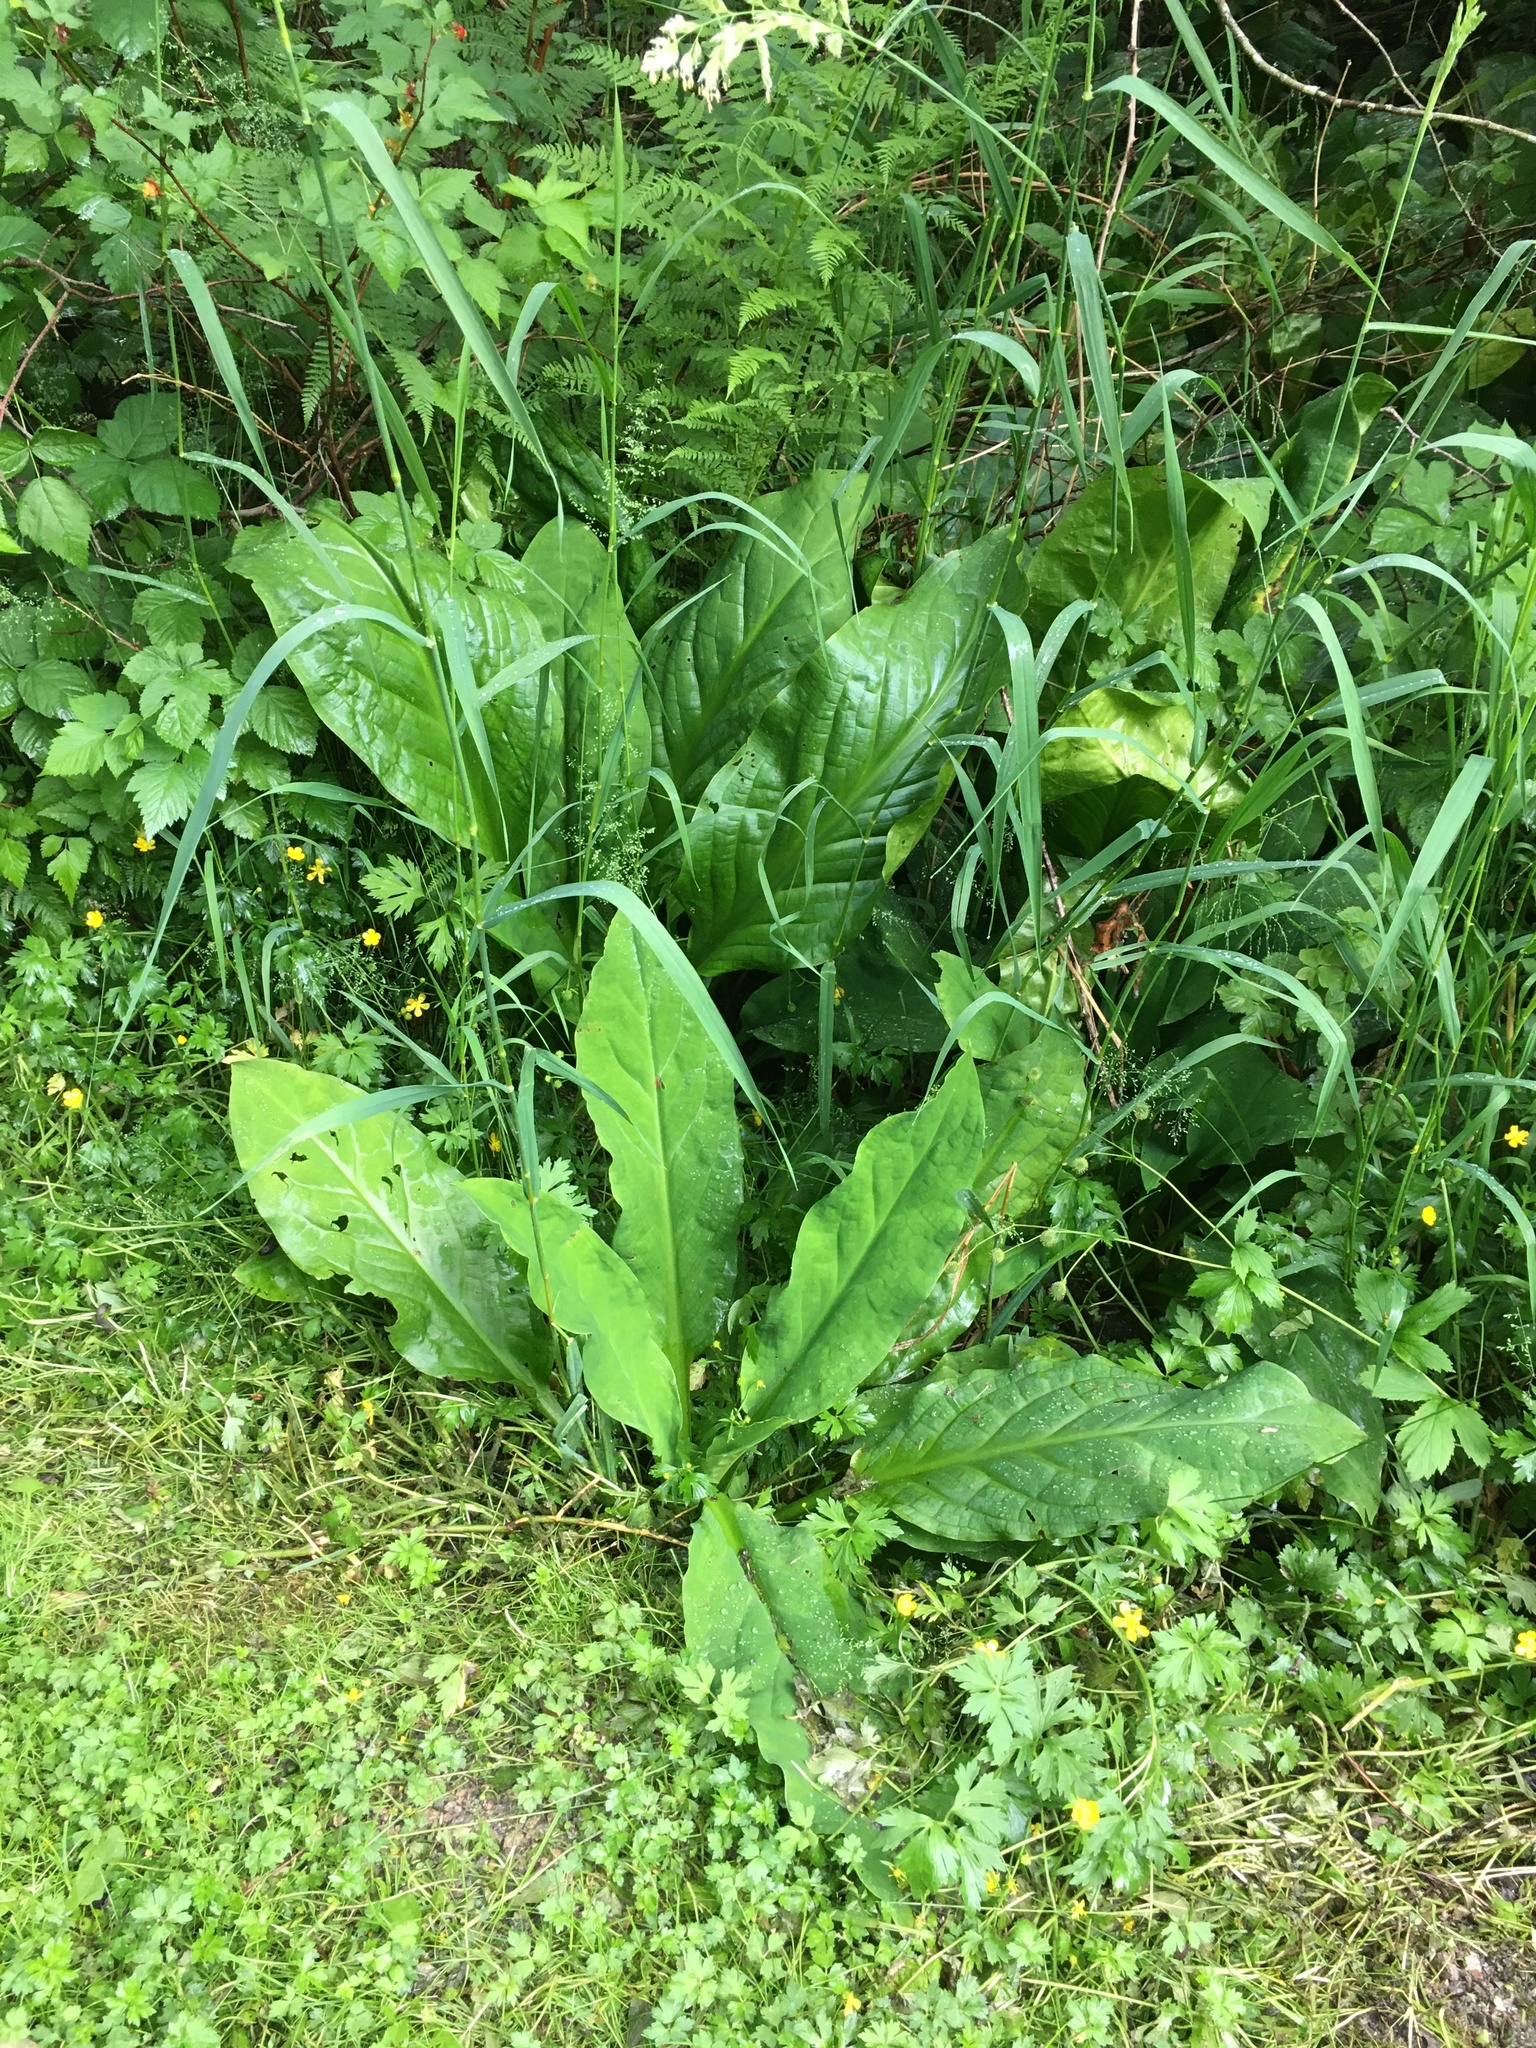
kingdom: Plantae
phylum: Tracheophyta
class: Liliopsida
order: Alismatales
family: Araceae
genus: Lysichiton
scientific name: Lysichiton americanus
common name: American skunk cabbage
